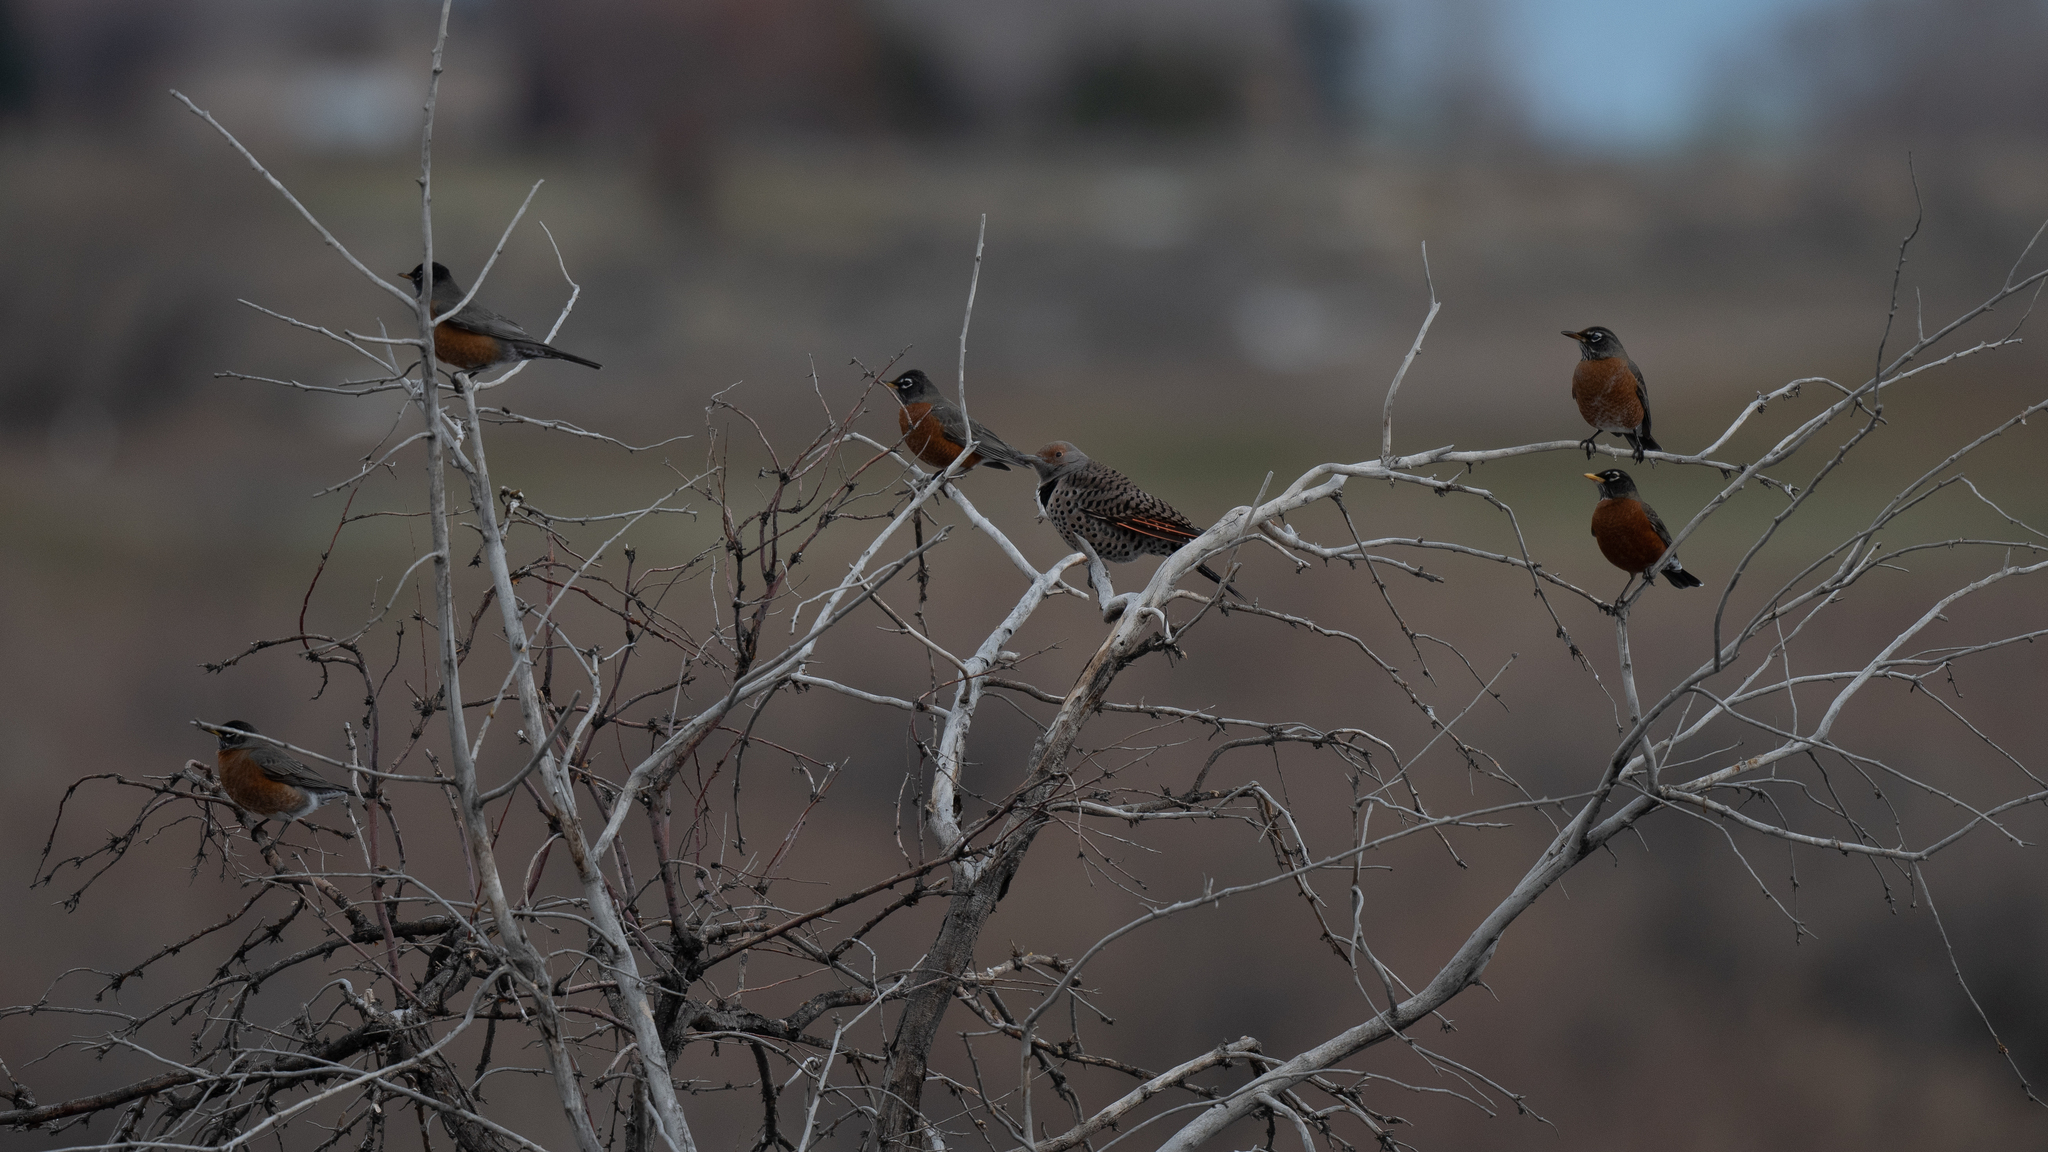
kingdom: Animalia
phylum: Chordata
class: Aves
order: Passeriformes
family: Turdidae
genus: Turdus
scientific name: Turdus migratorius
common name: American robin
